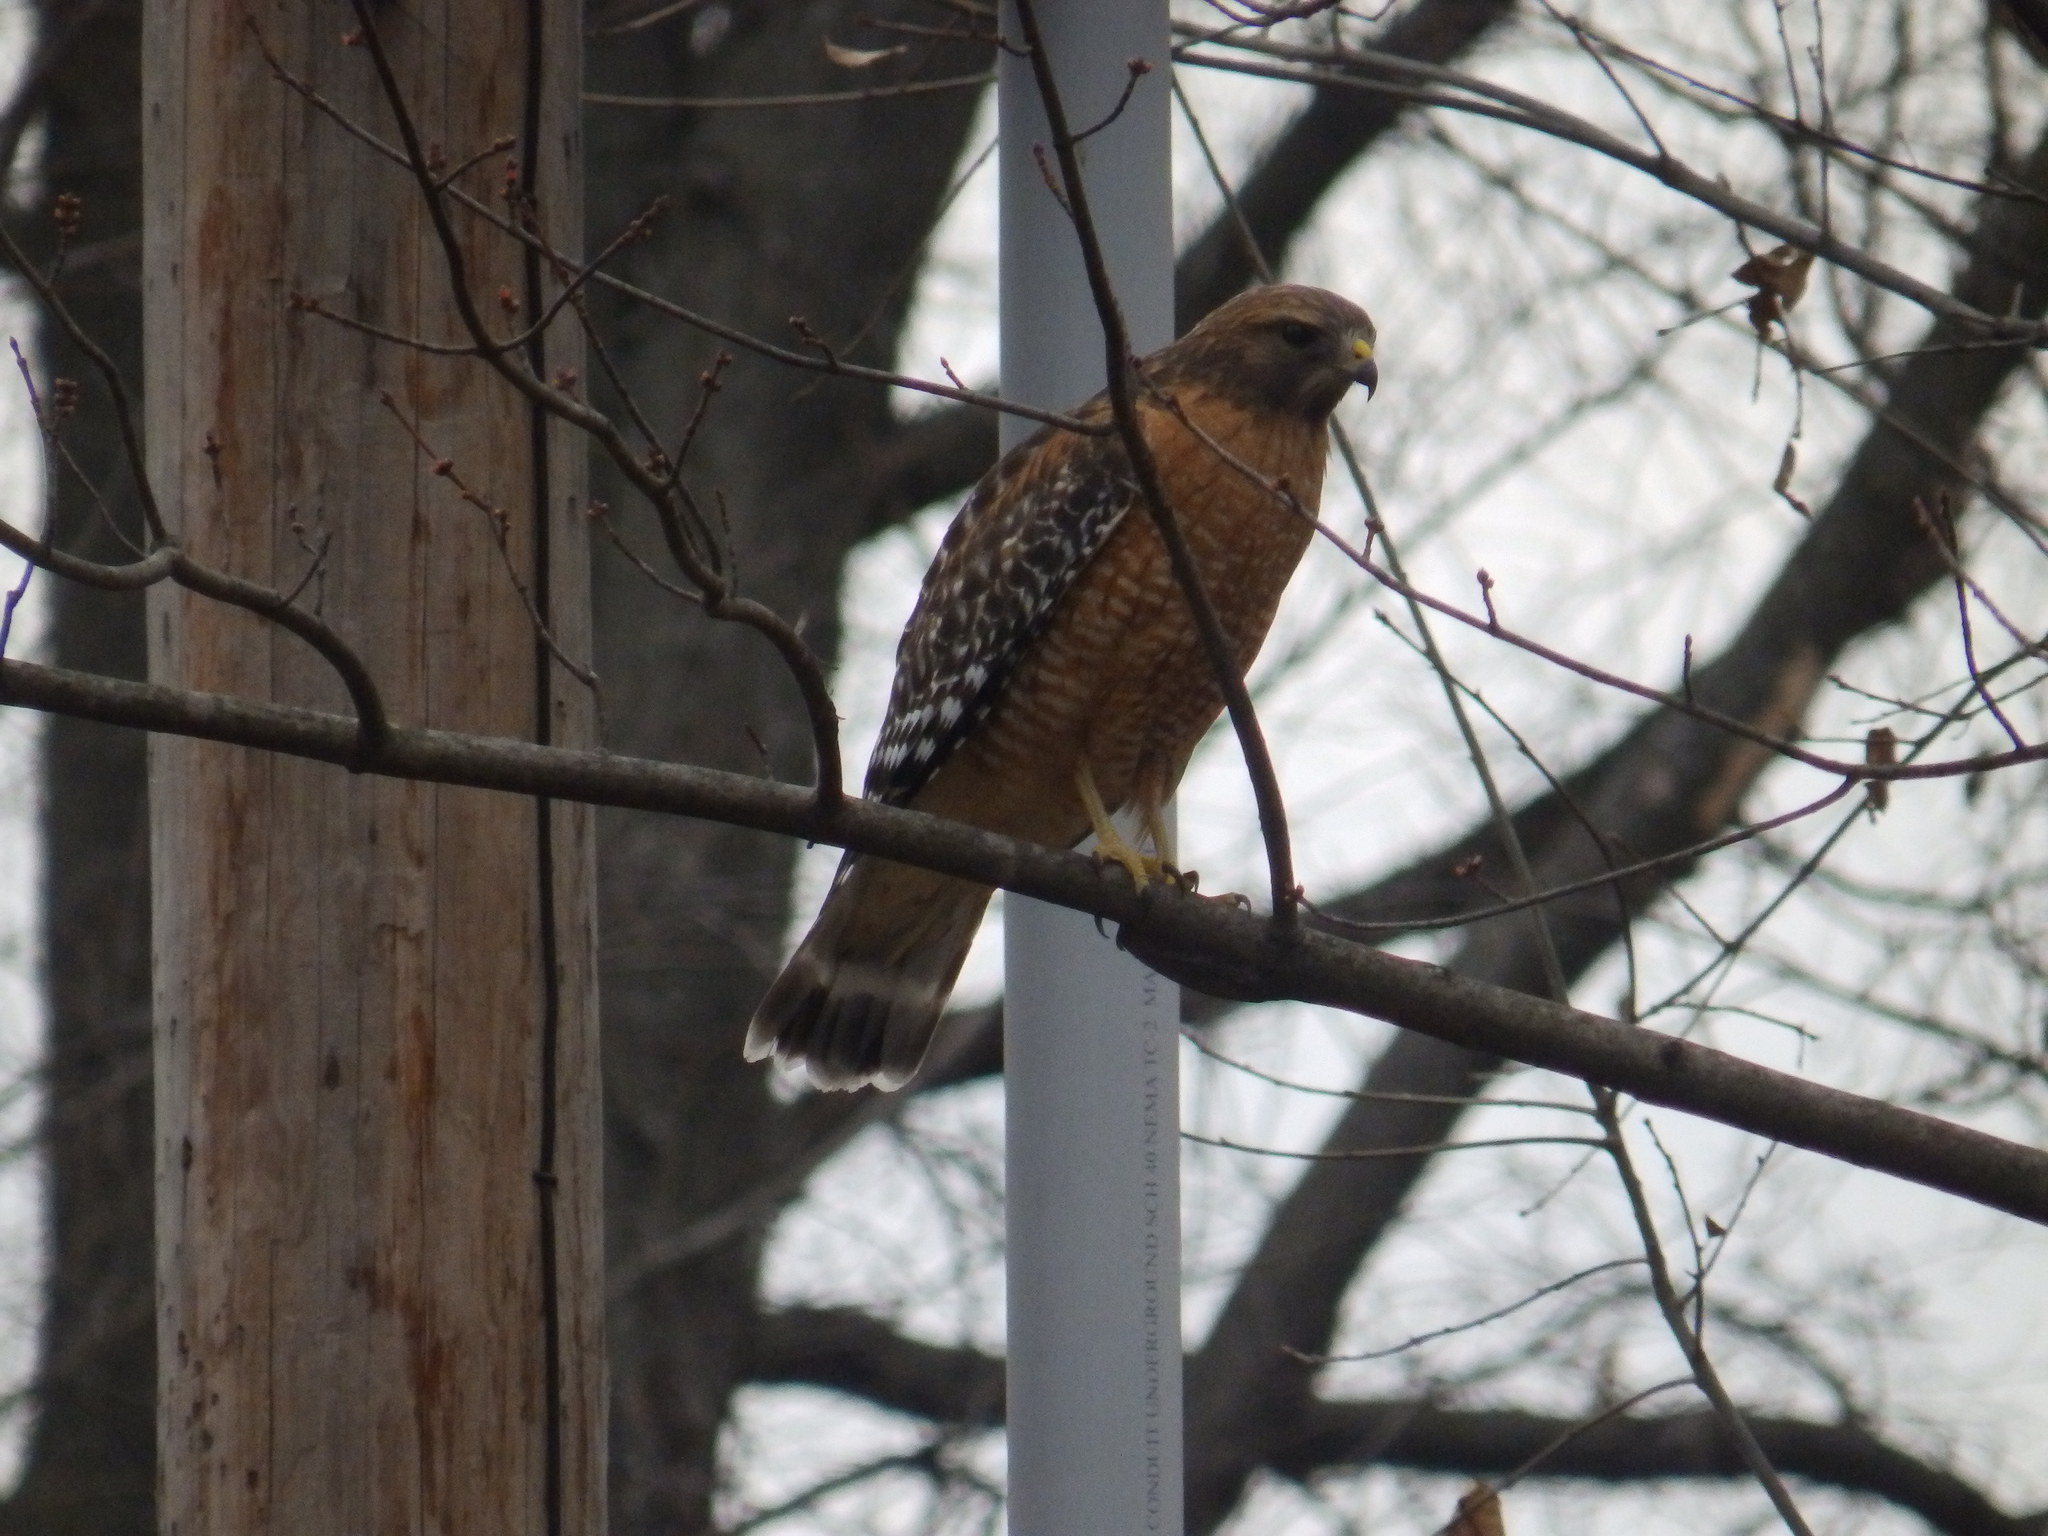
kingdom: Animalia
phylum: Chordata
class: Aves
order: Accipitriformes
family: Accipitridae
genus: Buteo
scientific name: Buteo lineatus
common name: Red-shouldered hawk
